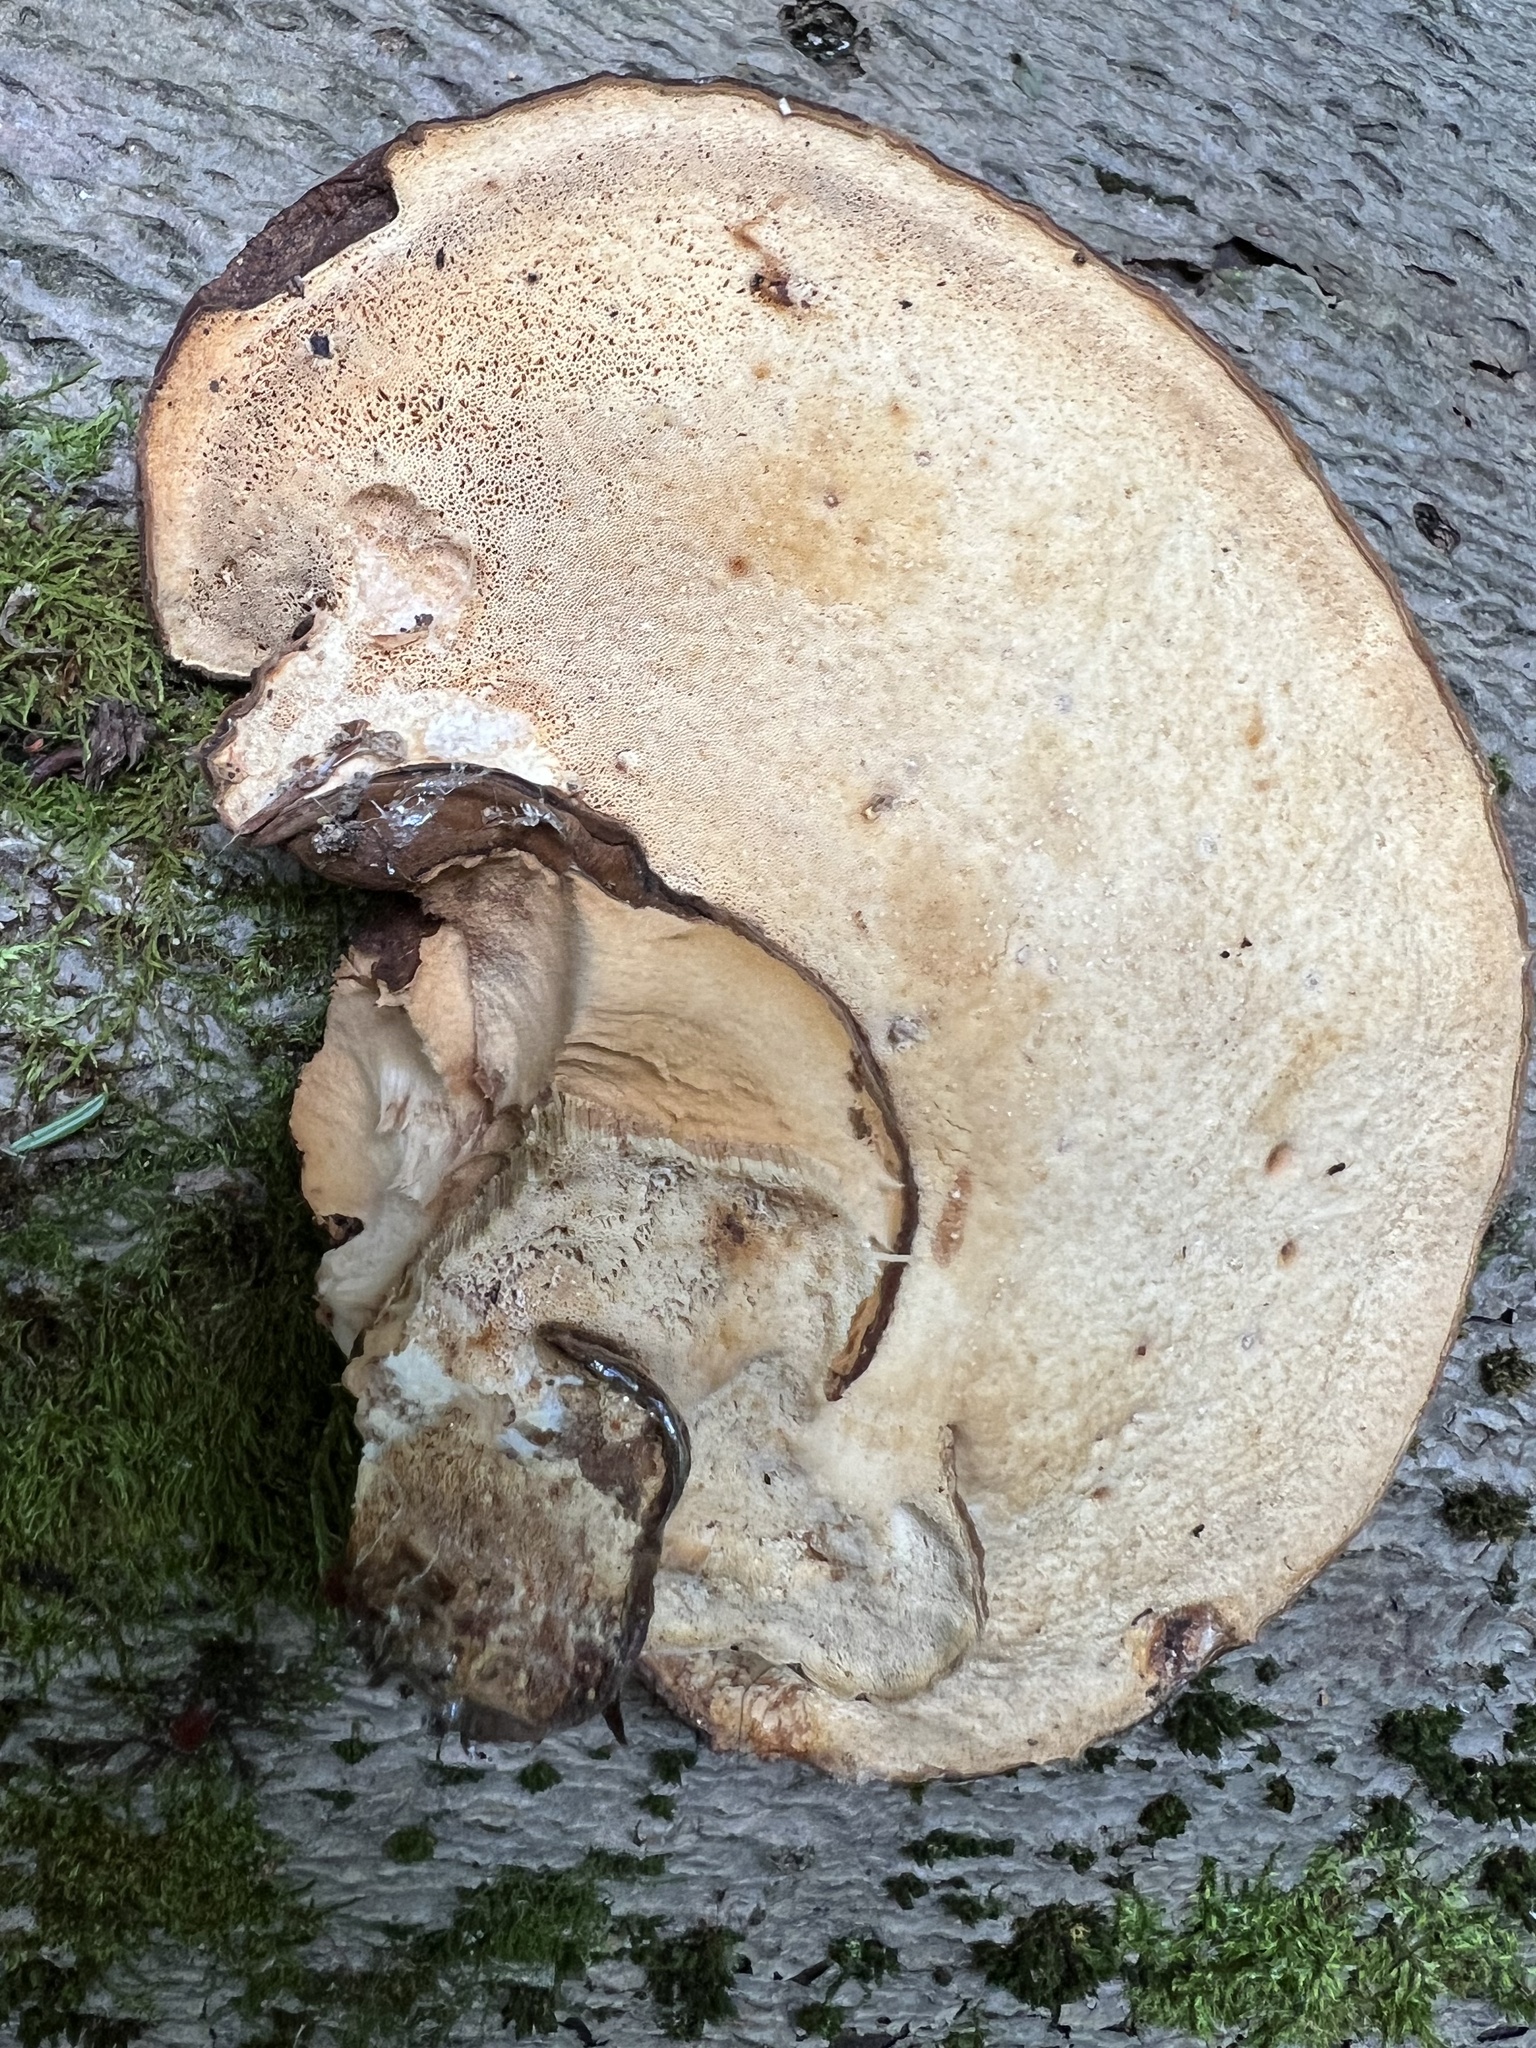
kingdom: Fungi
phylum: Basidiomycota
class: Agaricomycetes
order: Polyporales
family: Ischnodermataceae
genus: Ischnoderma
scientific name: Ischnoderma resinosum
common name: Resinous polypore
